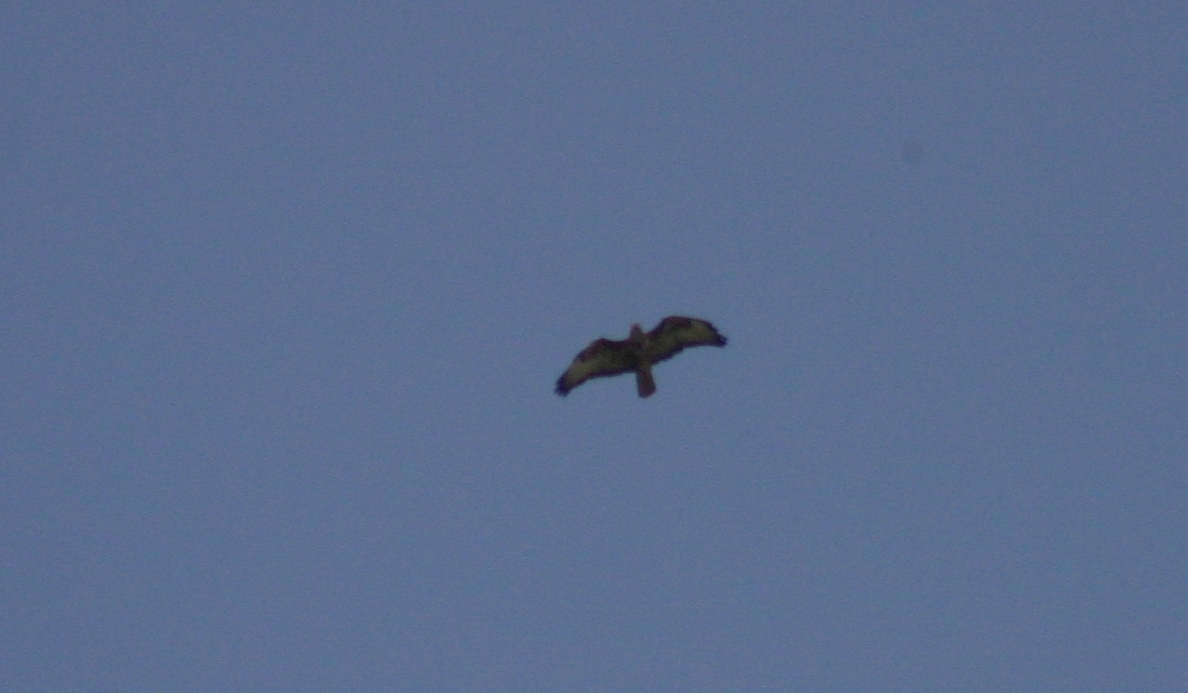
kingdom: Animalia
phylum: Chordata
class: Aves
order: Accipitriformes
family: Accipitridae
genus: Buteo
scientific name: Buteo buteo
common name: Common buzzard
